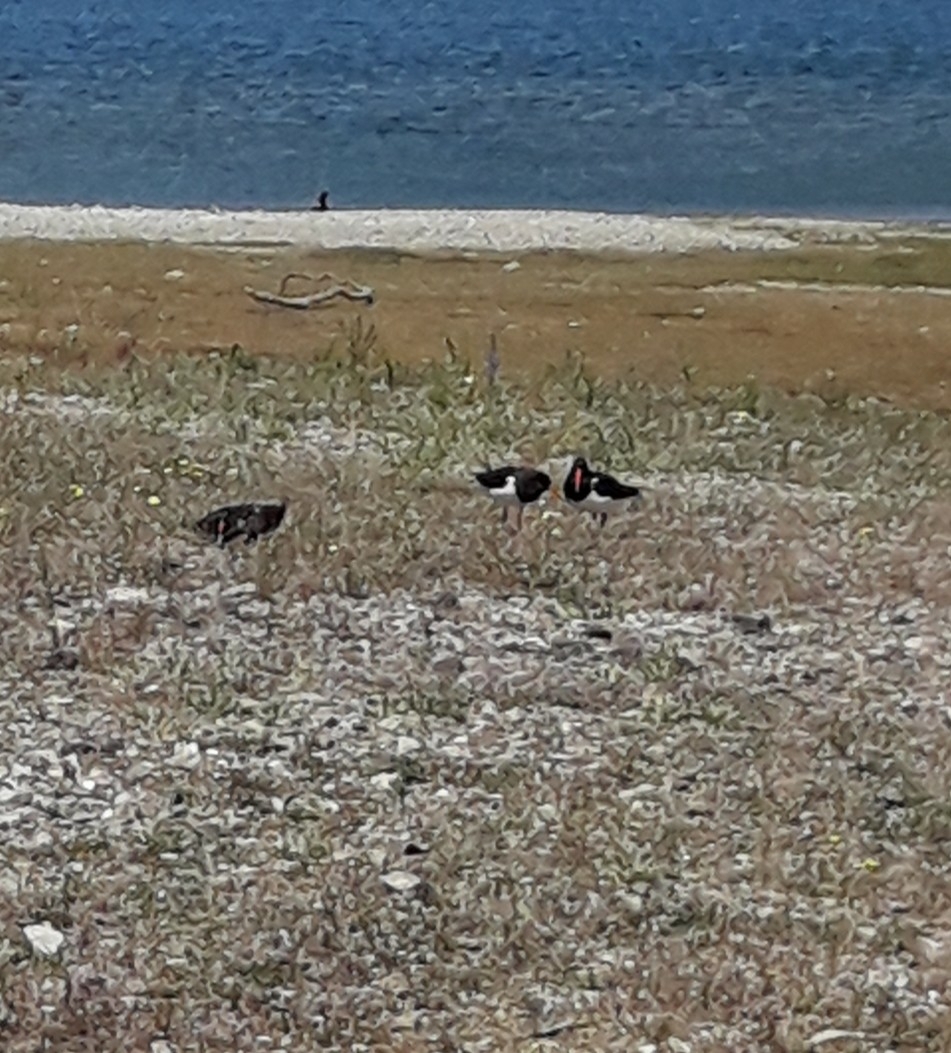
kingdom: Animalia
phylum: Chordata
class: Aves
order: Charadriiformes
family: Haematopodidae
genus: Haematopus
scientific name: Haematopus finschi
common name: South island oystercatcher
